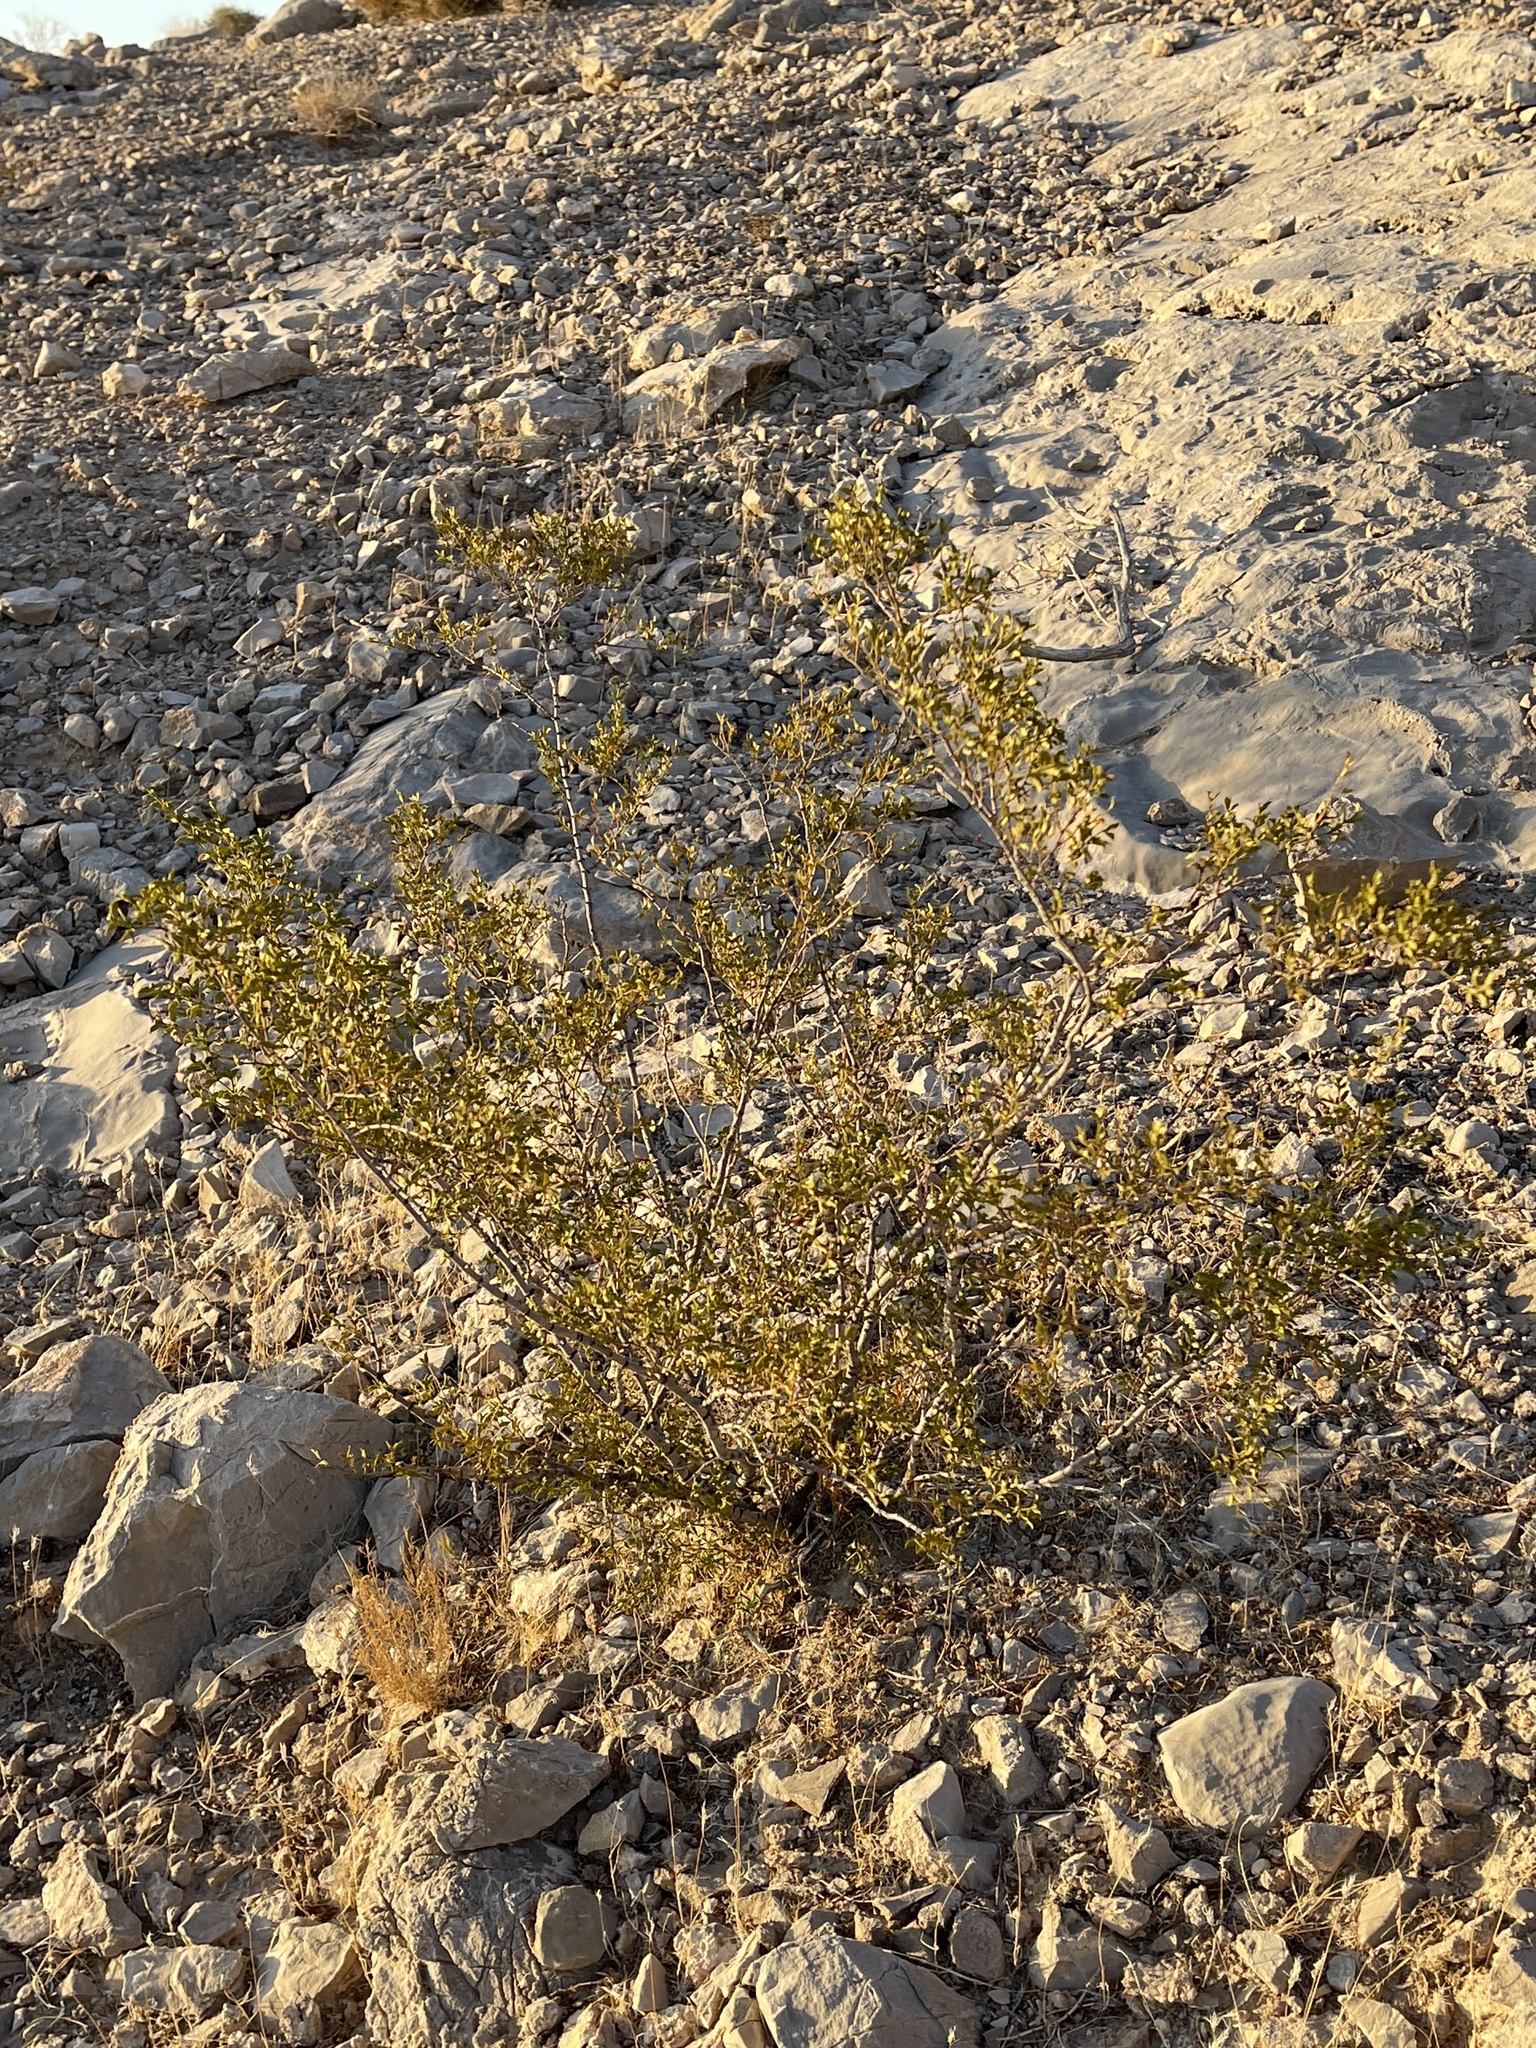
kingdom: Plantae
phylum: Tracheophyta
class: Magnoliopsida
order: Zygophyllales
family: Zygophyllaceae
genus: Larrea
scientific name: Larrea tridentata
